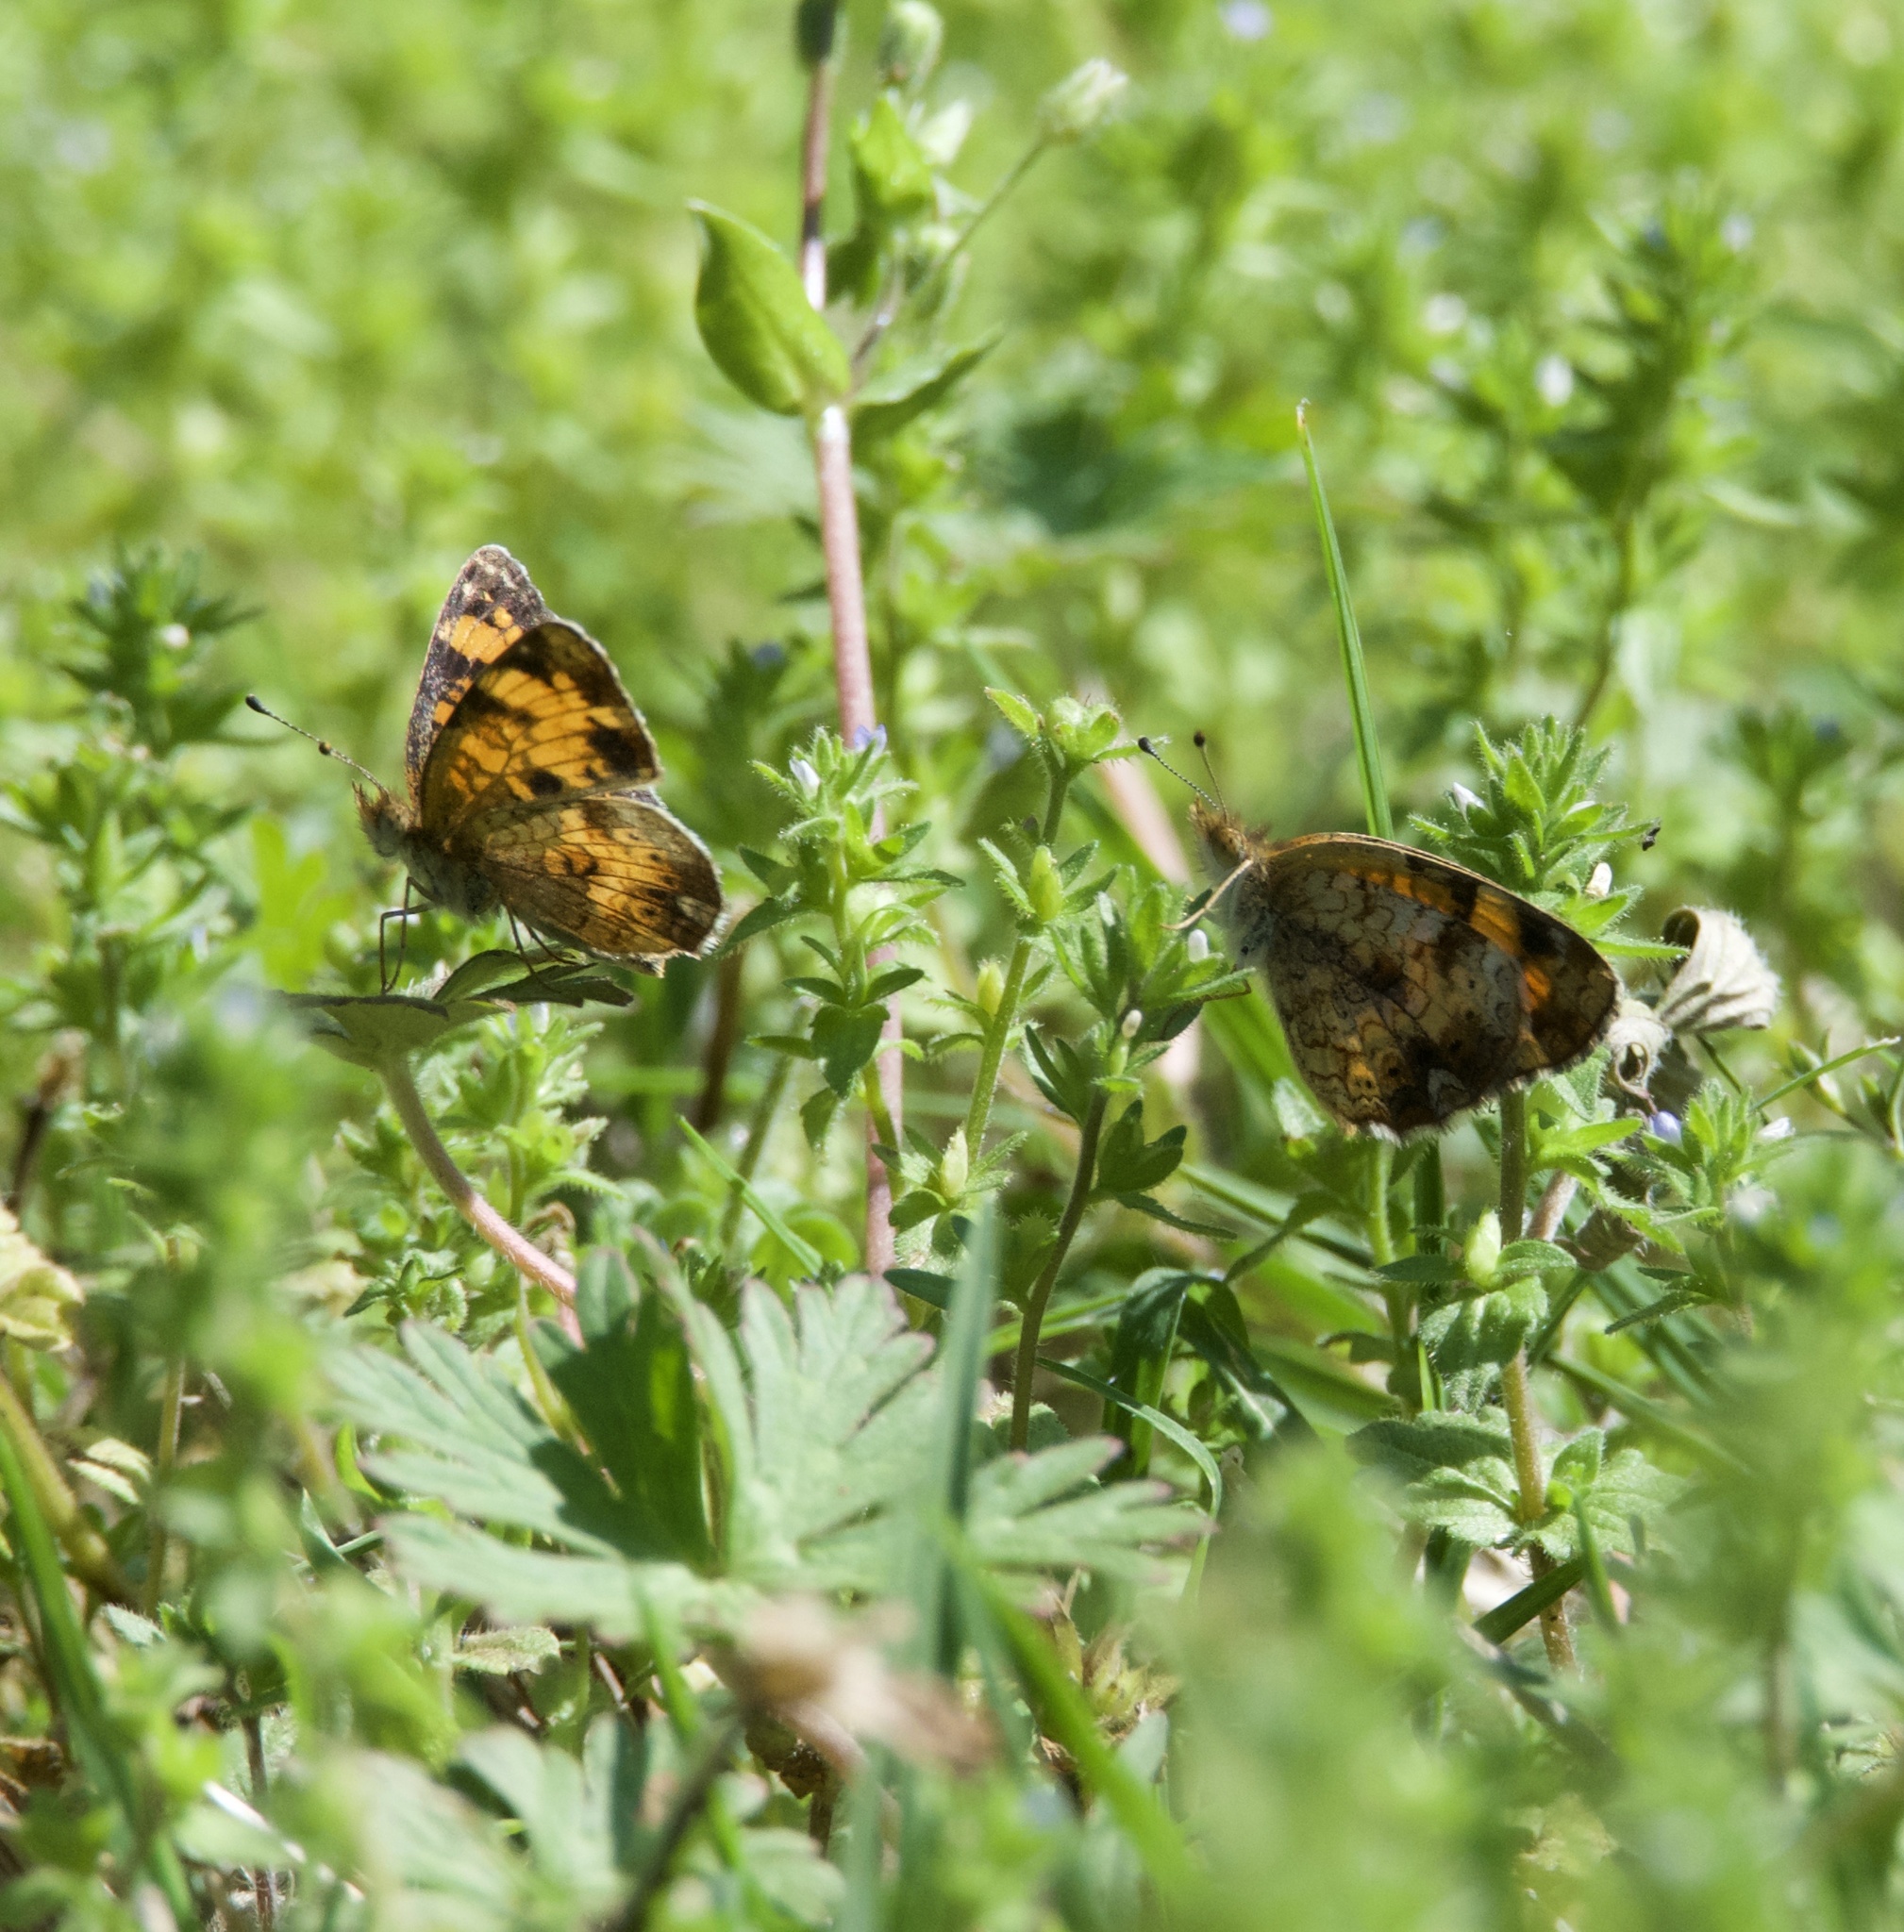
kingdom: Animalia
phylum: Arthropoda
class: Insecta
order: Lepidoptera
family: Nymphalidae
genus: Phyciodes
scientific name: Phyciodes tharos
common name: Pearl crescent
